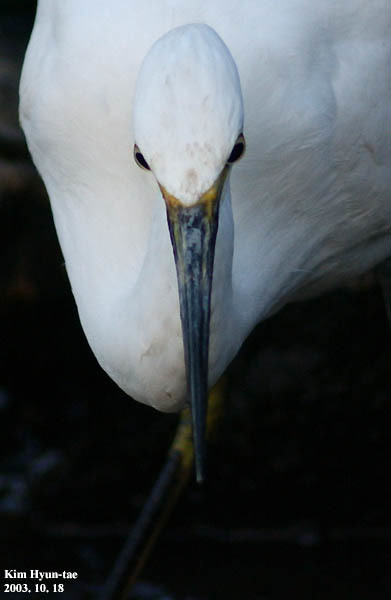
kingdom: Animalia
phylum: Chordata
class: Aves
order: Pelecaniformes
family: Ardeidae
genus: Egretta
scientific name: Egretta garzetta
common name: Little egret
